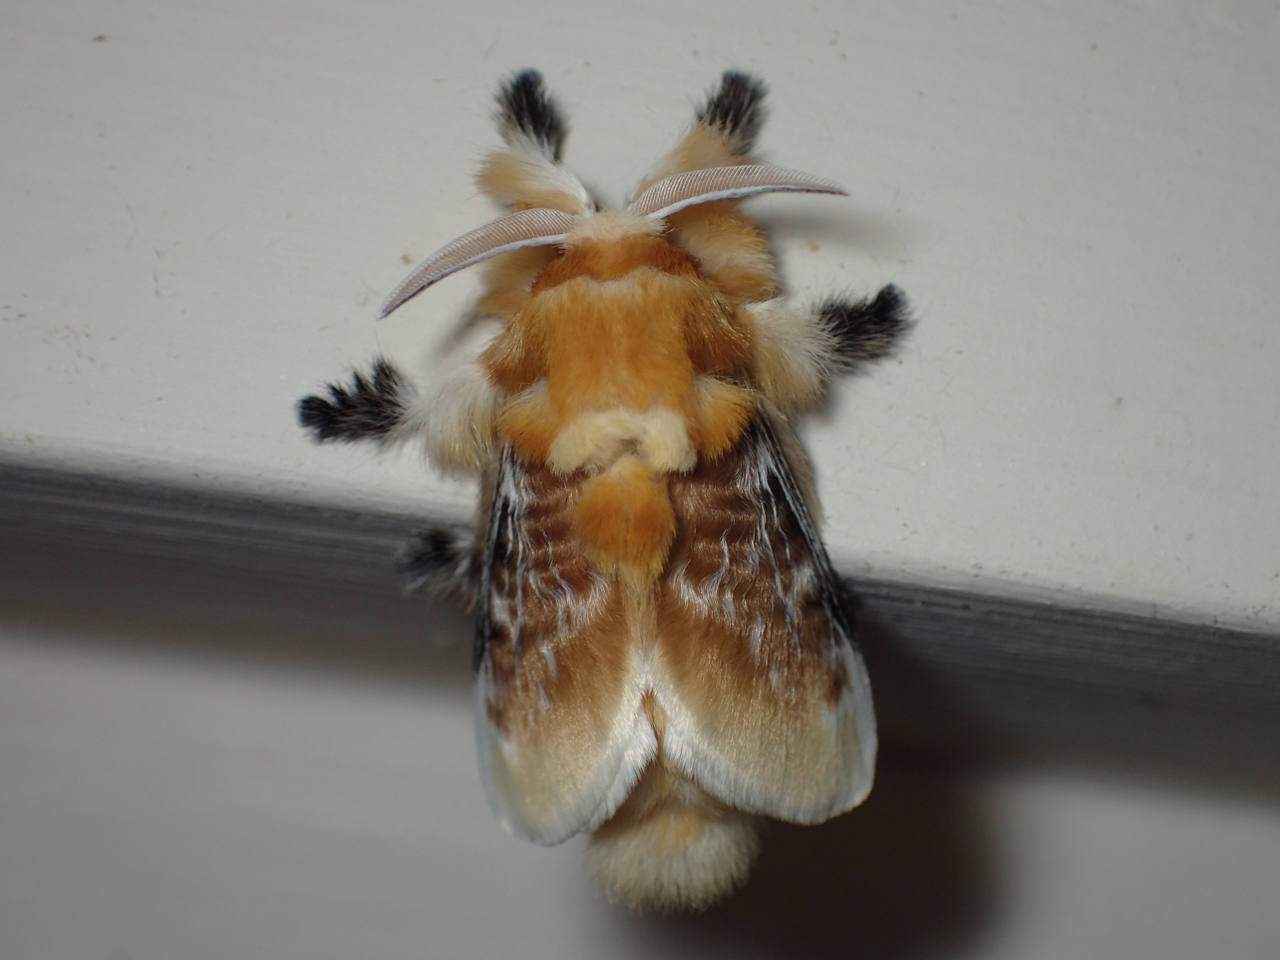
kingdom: Animalia
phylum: Arthropoda
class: Insecta
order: Lepidoptera
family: Megalopygidae
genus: Megalopyge
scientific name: Megalopyge opercularis
